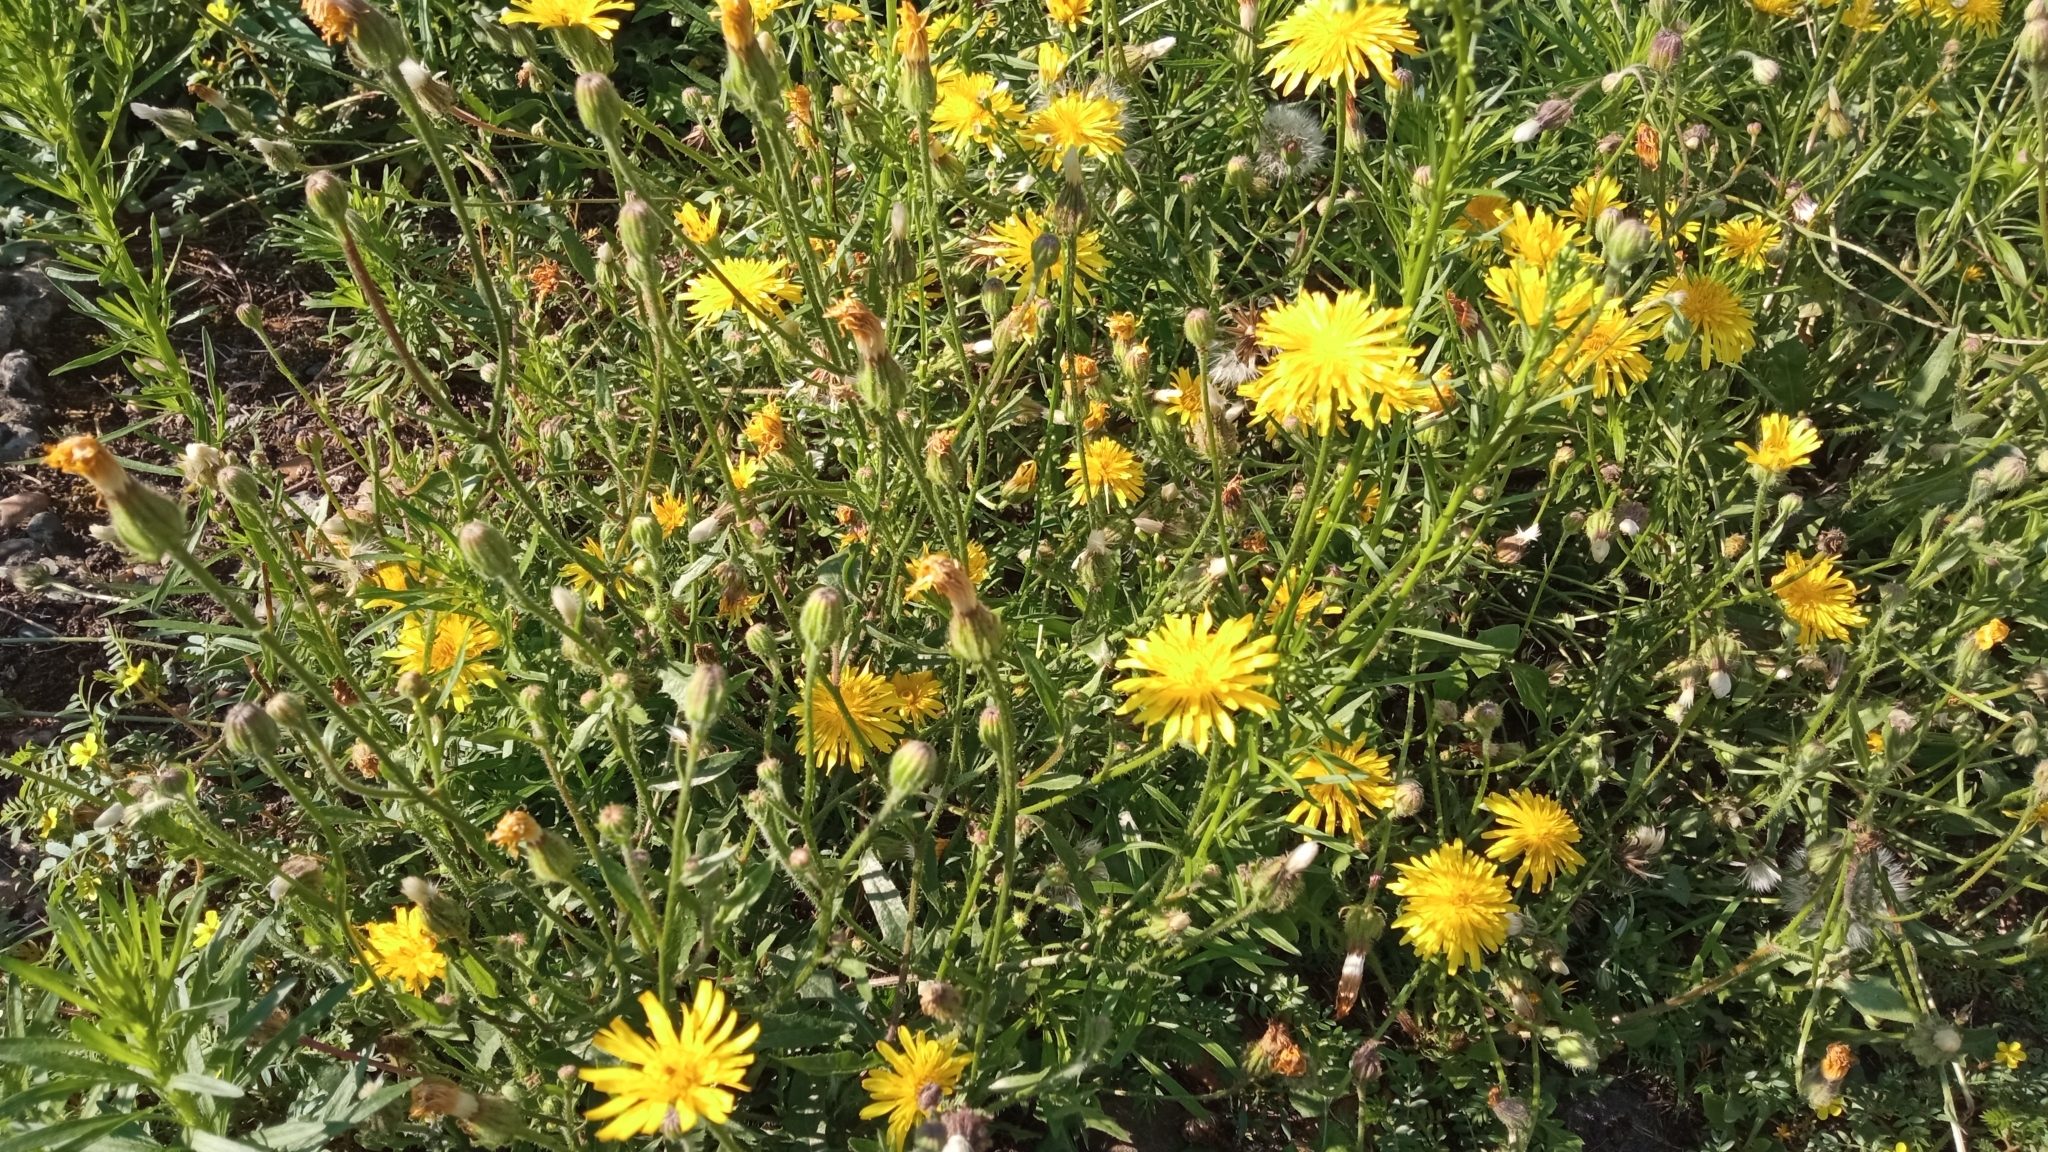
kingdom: Plantae
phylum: Tracheophyta
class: Magnoliopsida
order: Asterales
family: Asteraceae
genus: Crepis
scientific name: Crepis foetida
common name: Stinking hawk's-beard
